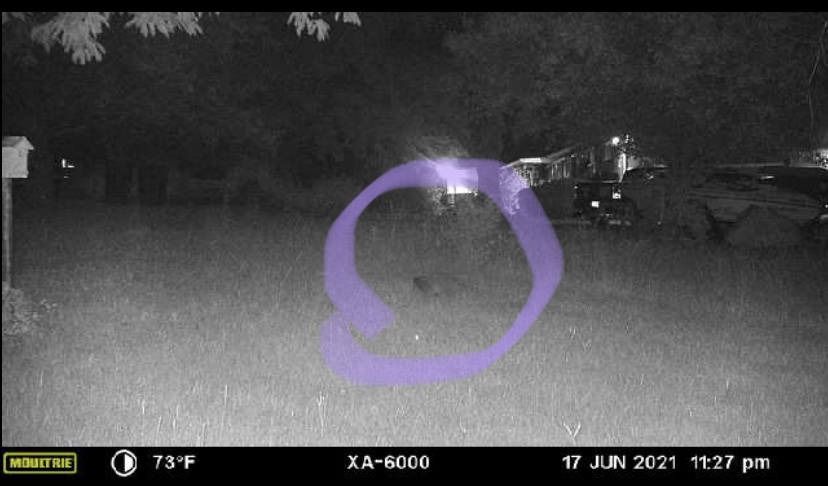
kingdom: Animalia
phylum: Chordata
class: Mammalia
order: Carnivora
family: Procyonidae
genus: Procyon
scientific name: Procyon lotor
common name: Raccoon
